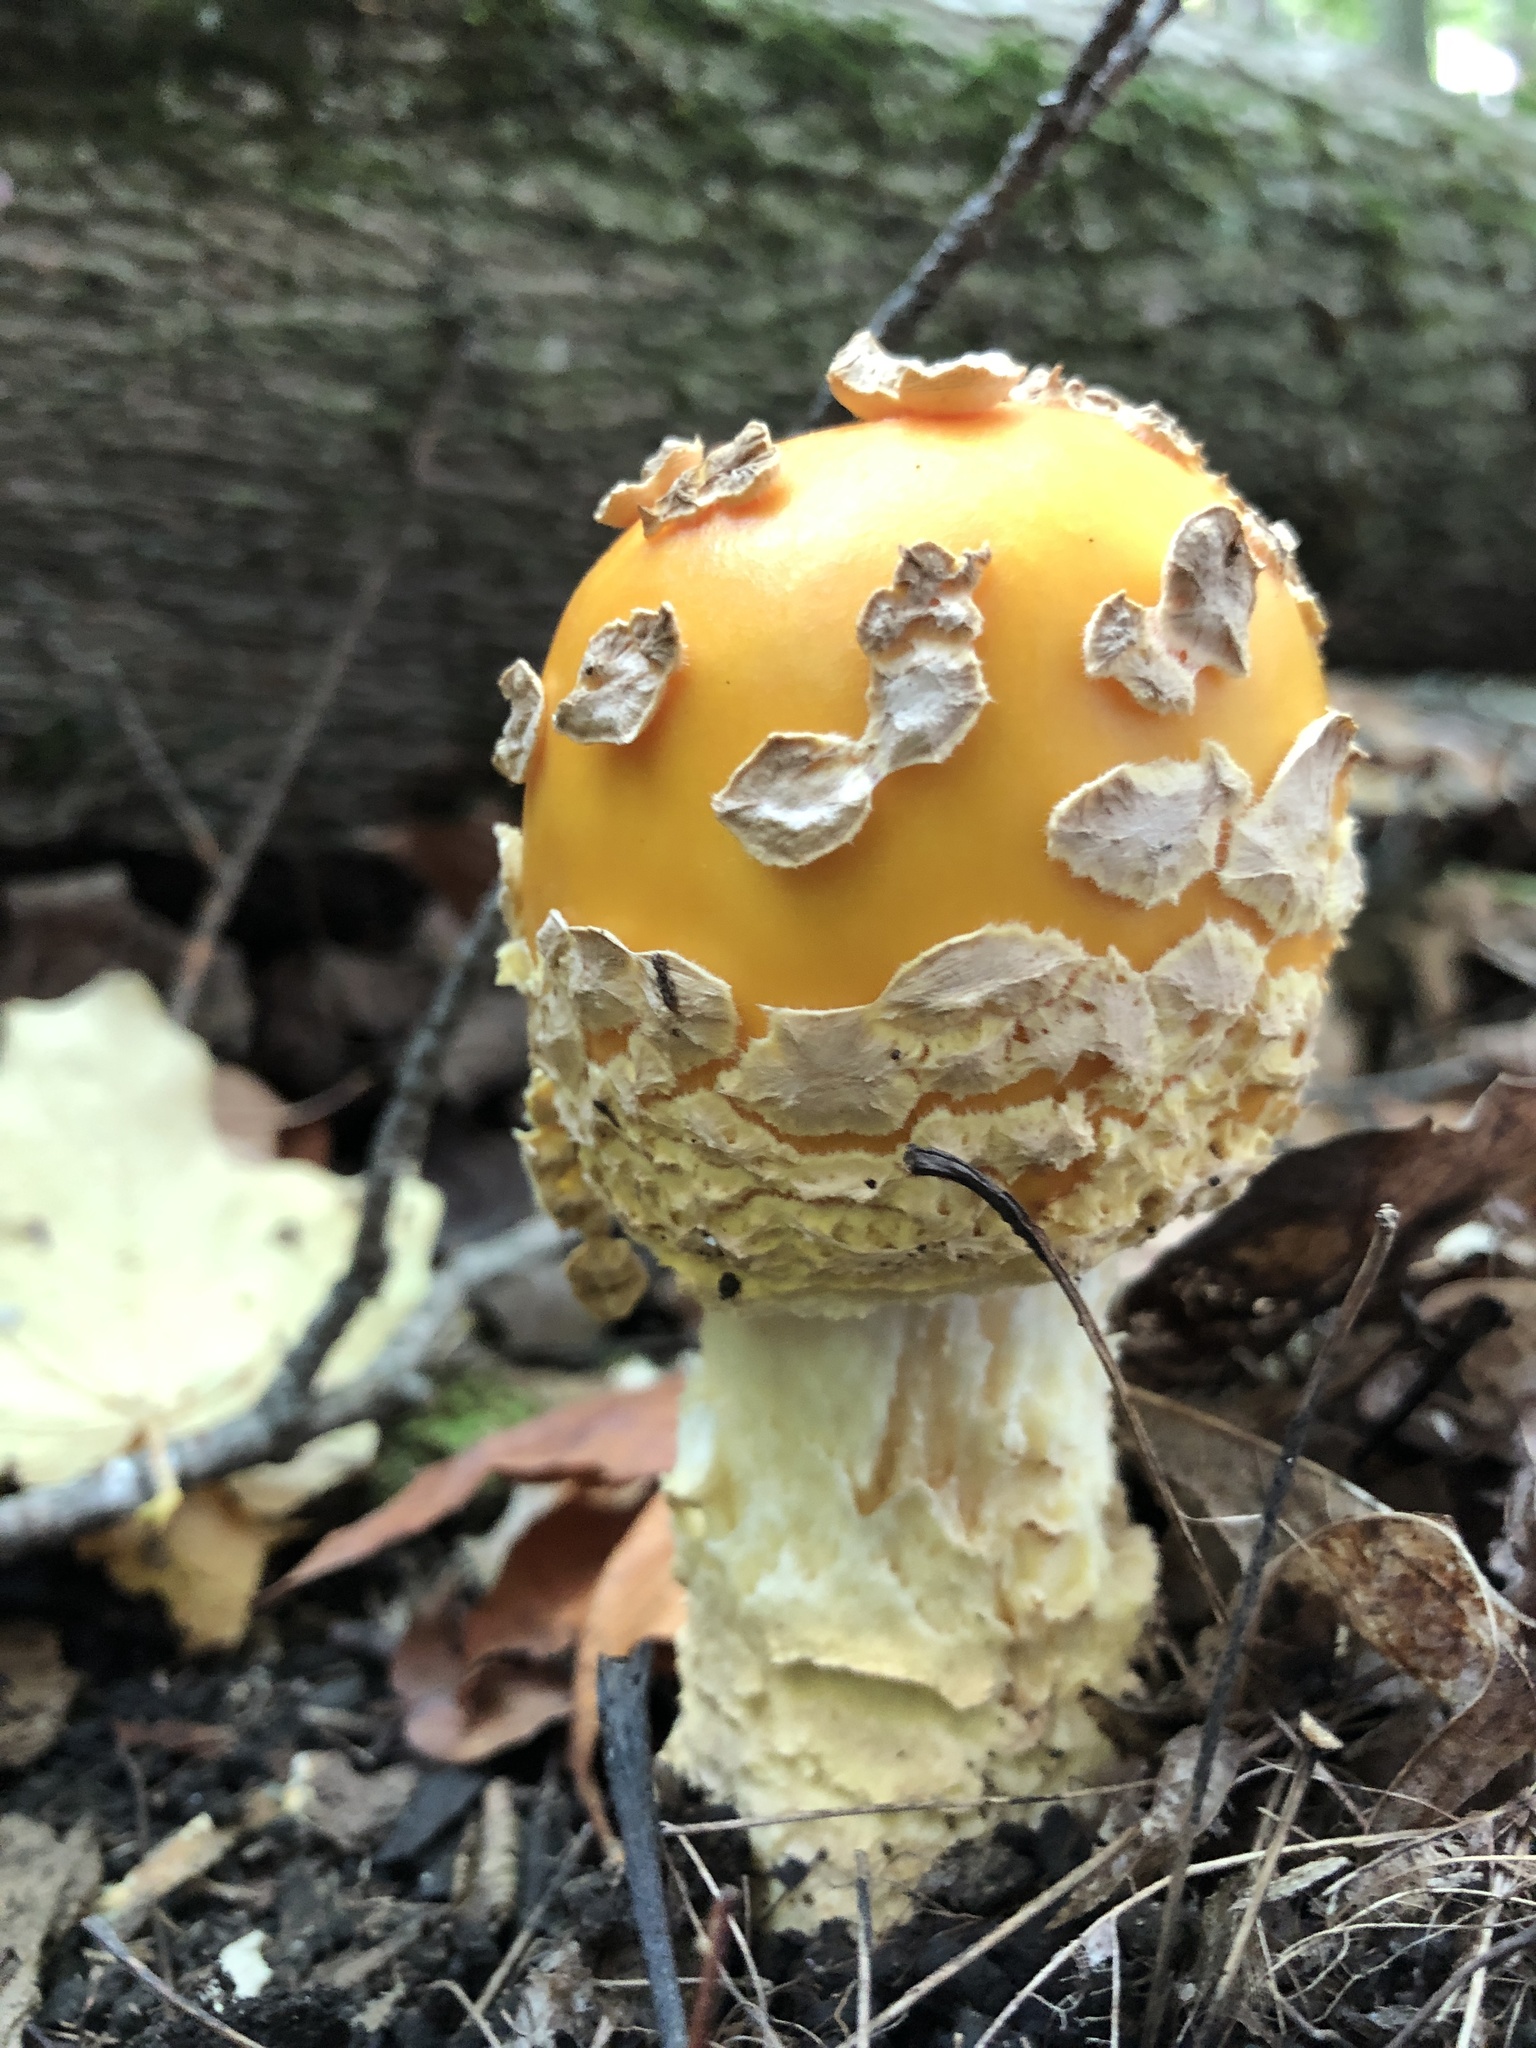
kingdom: Fungi
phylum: Basidiomycota
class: Agaricomycetes
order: Agaricales
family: Amanitaceae
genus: Amanita
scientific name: Amanita muscaria
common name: Fly agaric
